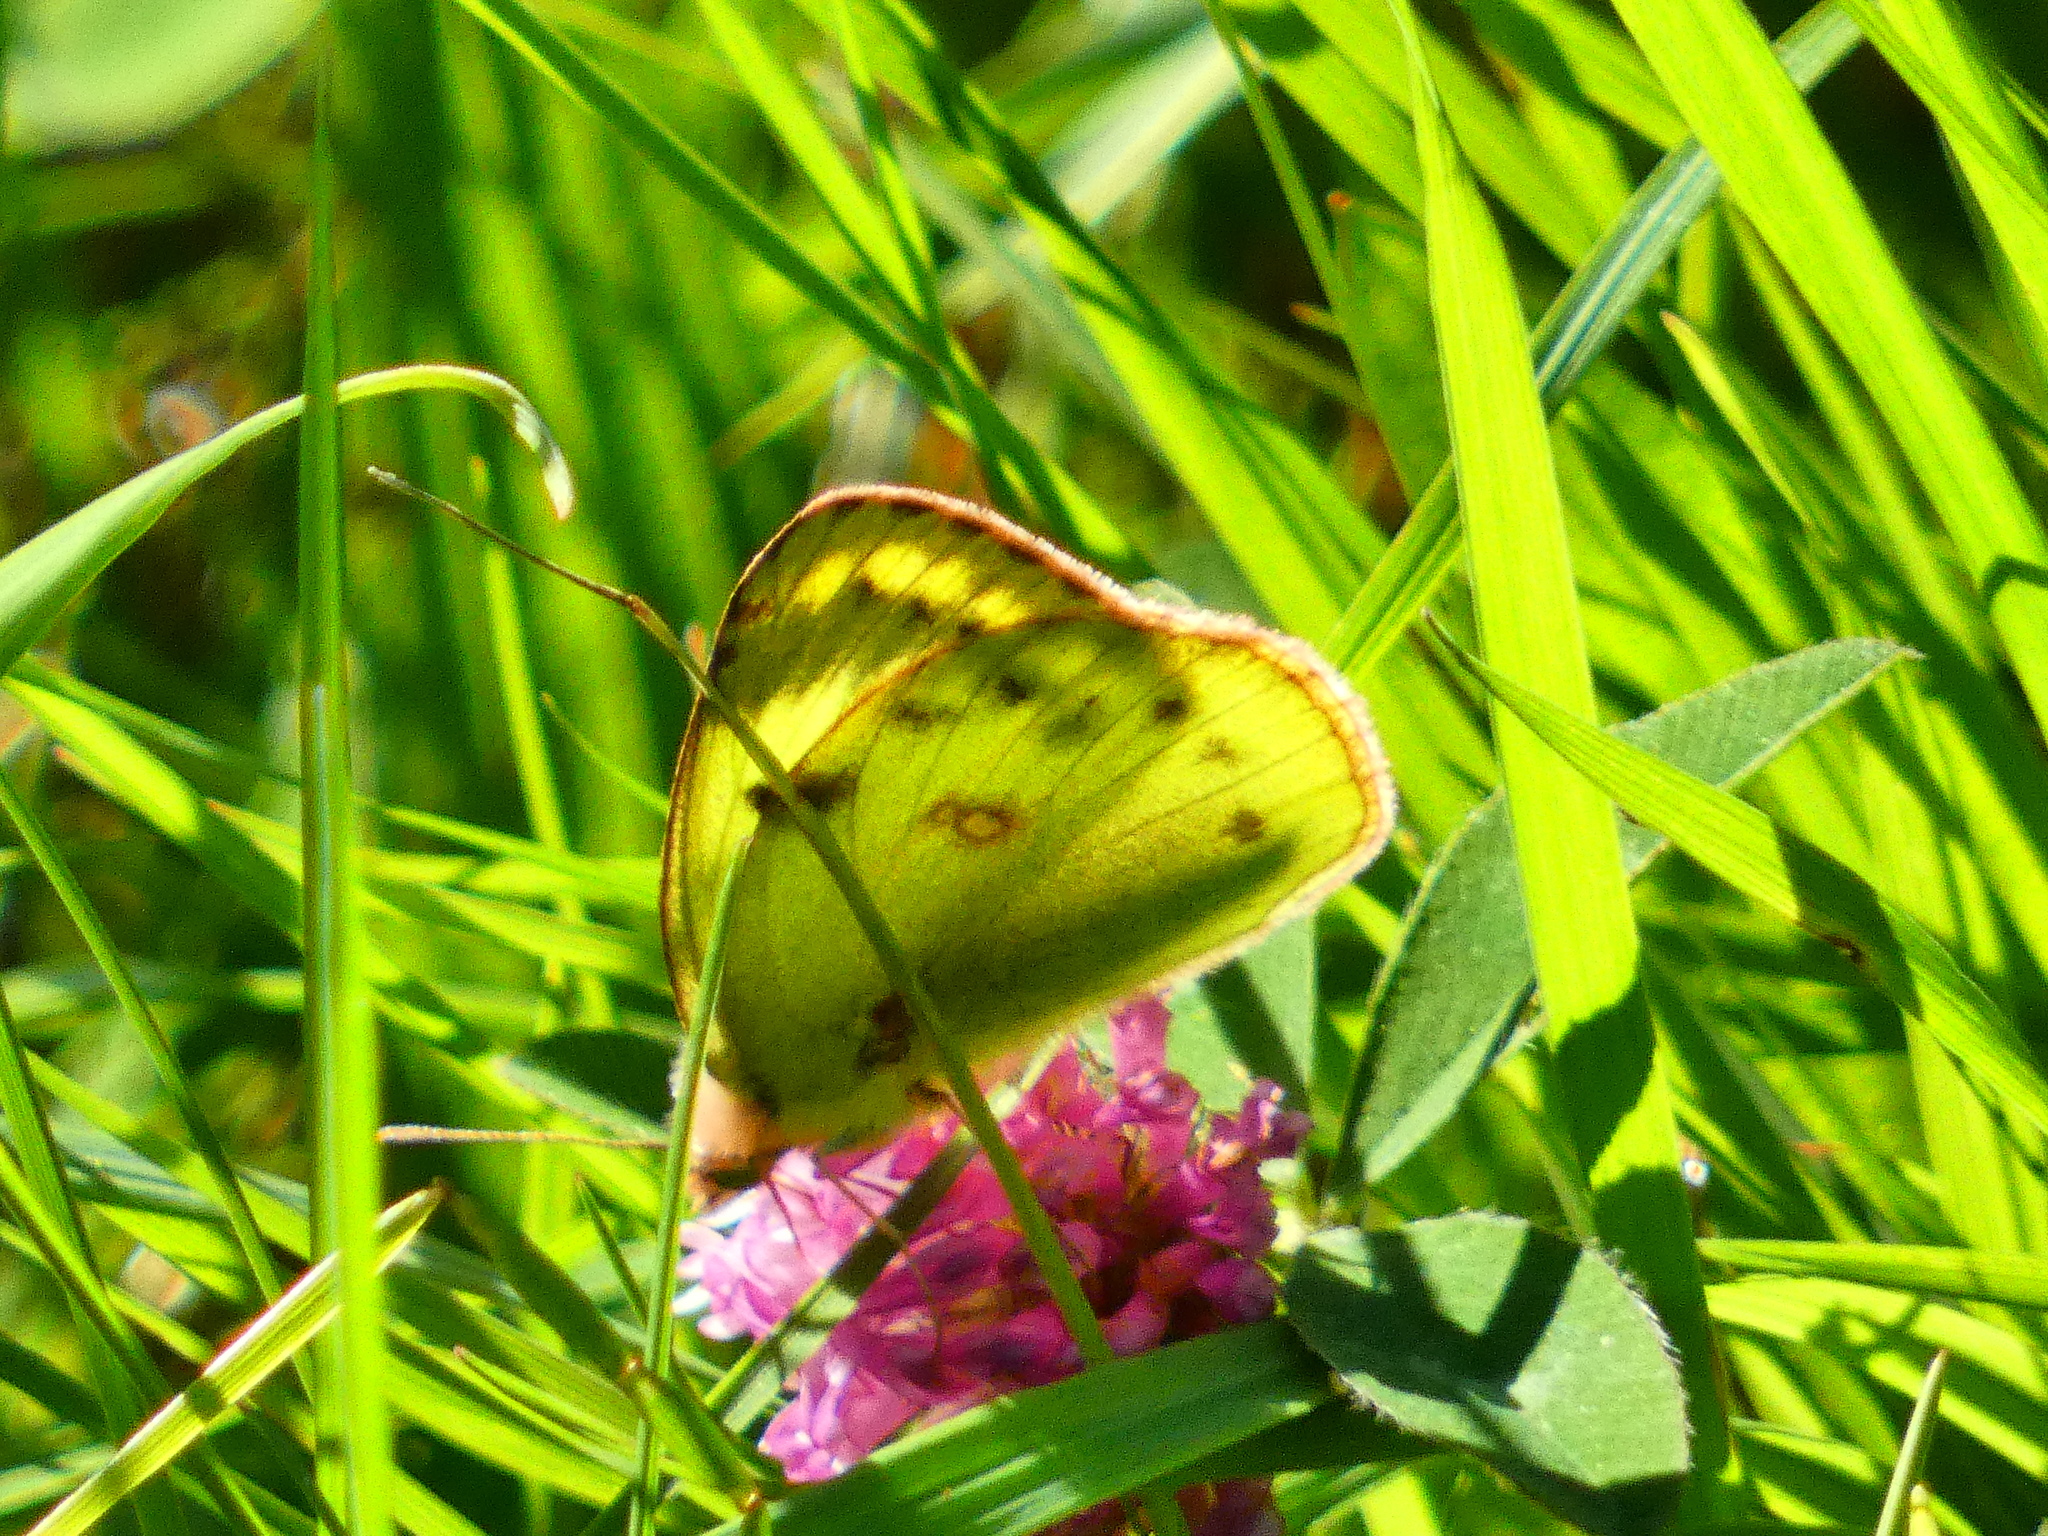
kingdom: Animalia
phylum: Arthropoda
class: Insecta
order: Lepidoptera
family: Pieridae
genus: Colias
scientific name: Colias hyale
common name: Pale clouded yellow
